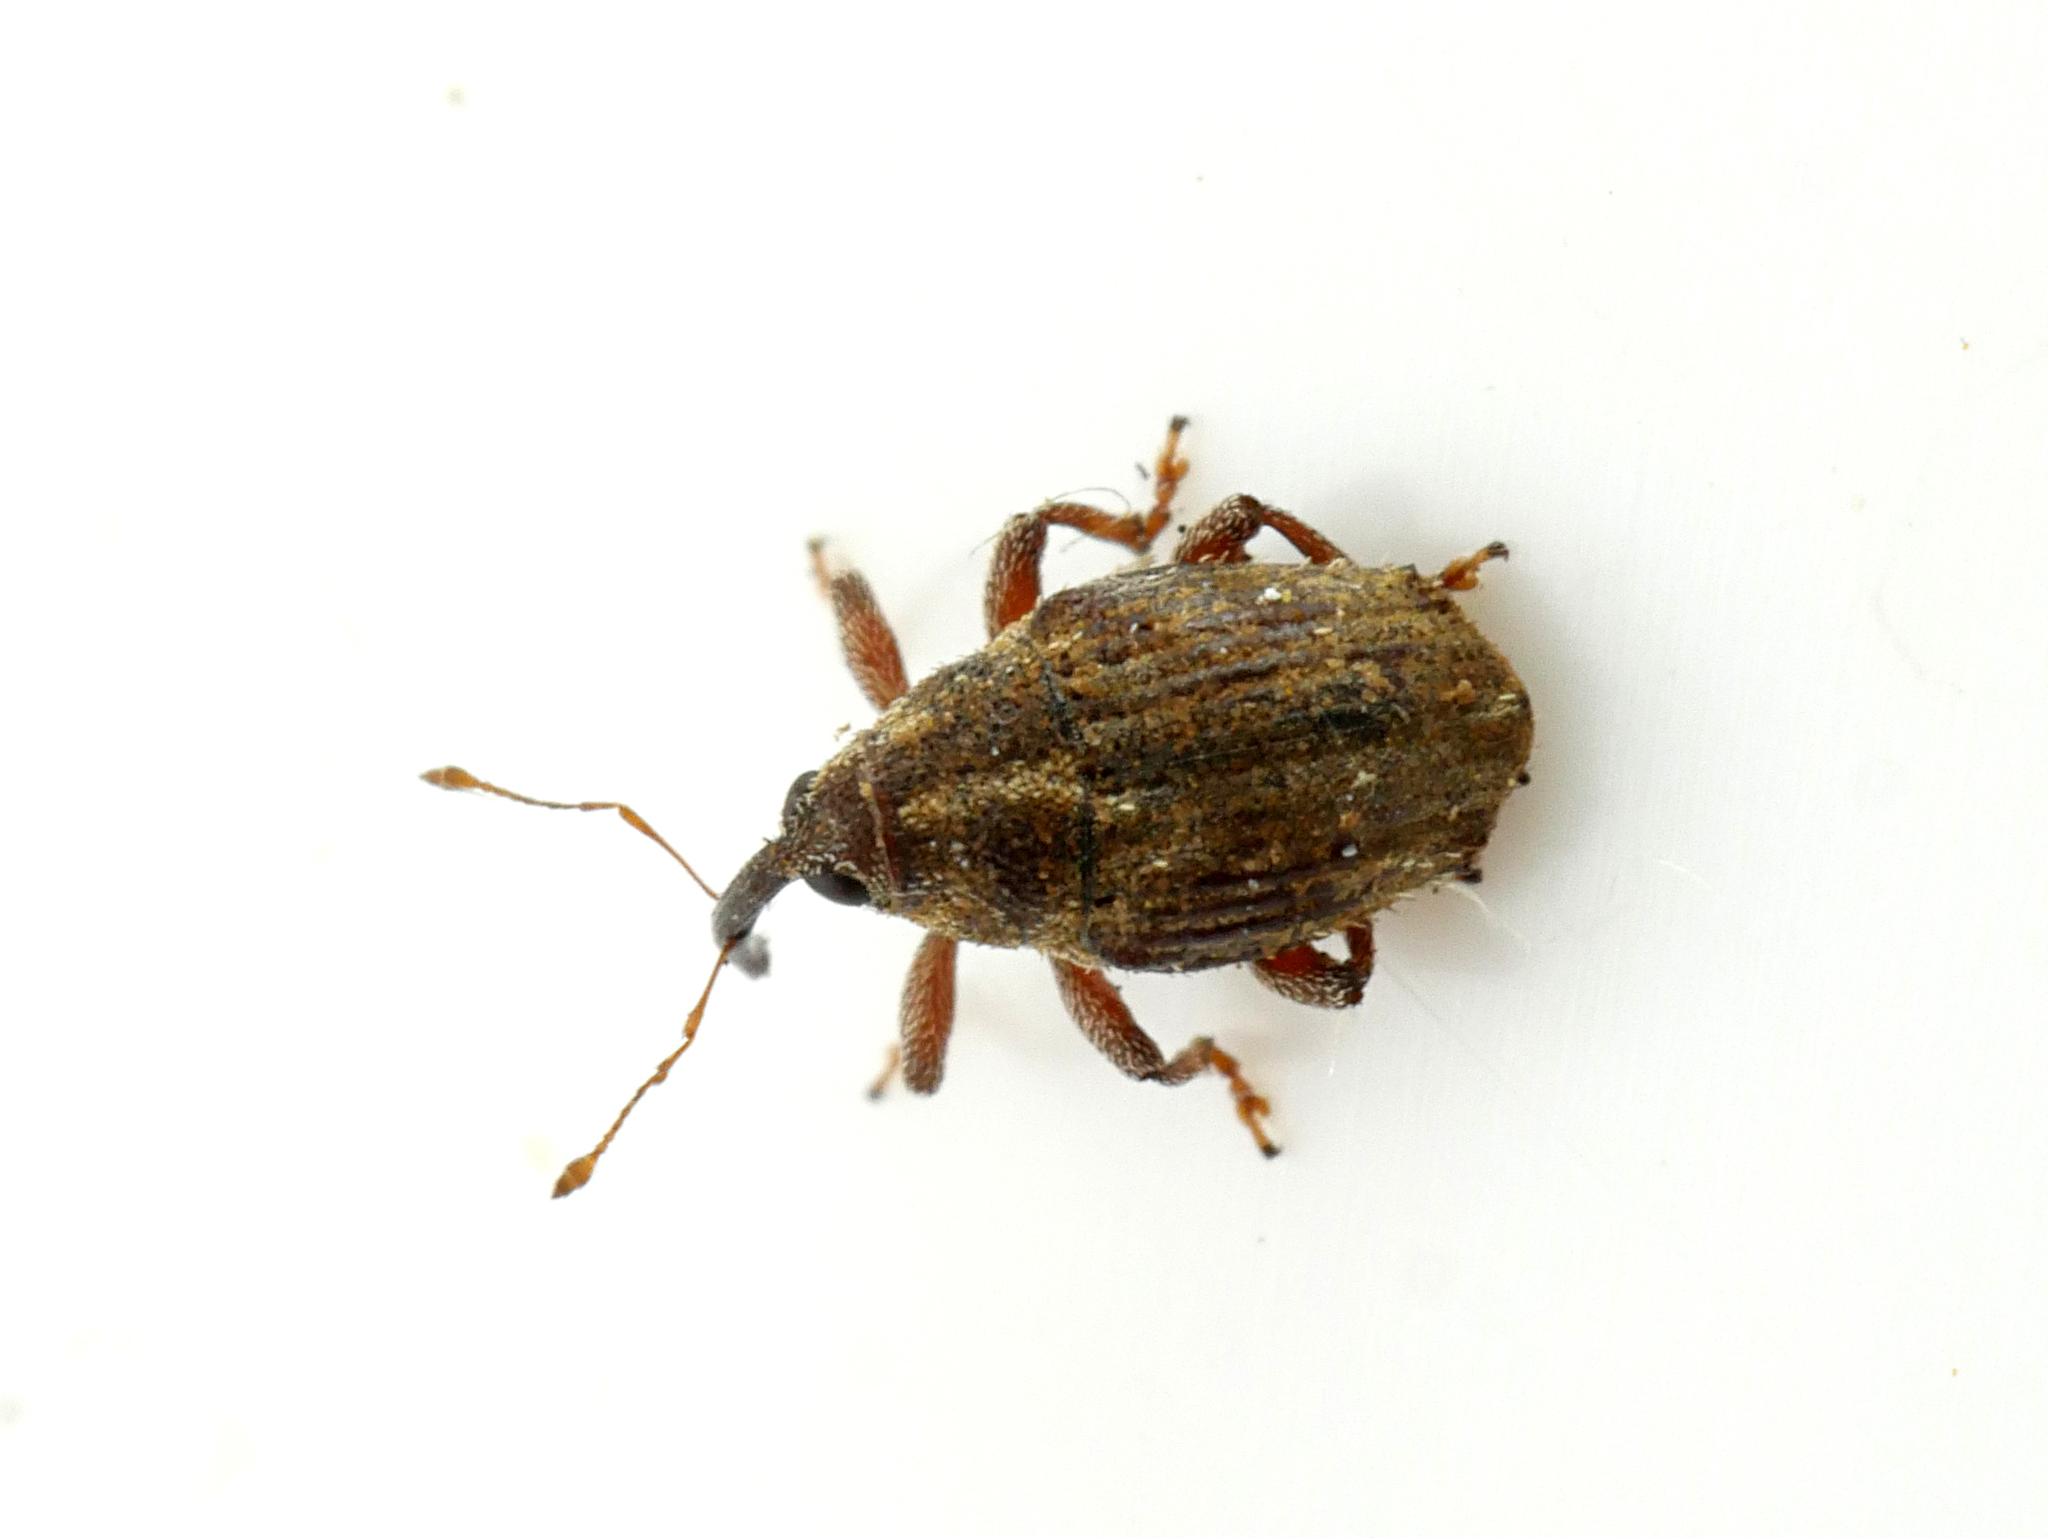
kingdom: Animalia
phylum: Arthropoda
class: Insecta
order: Coleoptera
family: Curculionidae
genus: Trichosirocalus
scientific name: Trichosirocalus troglodytes
